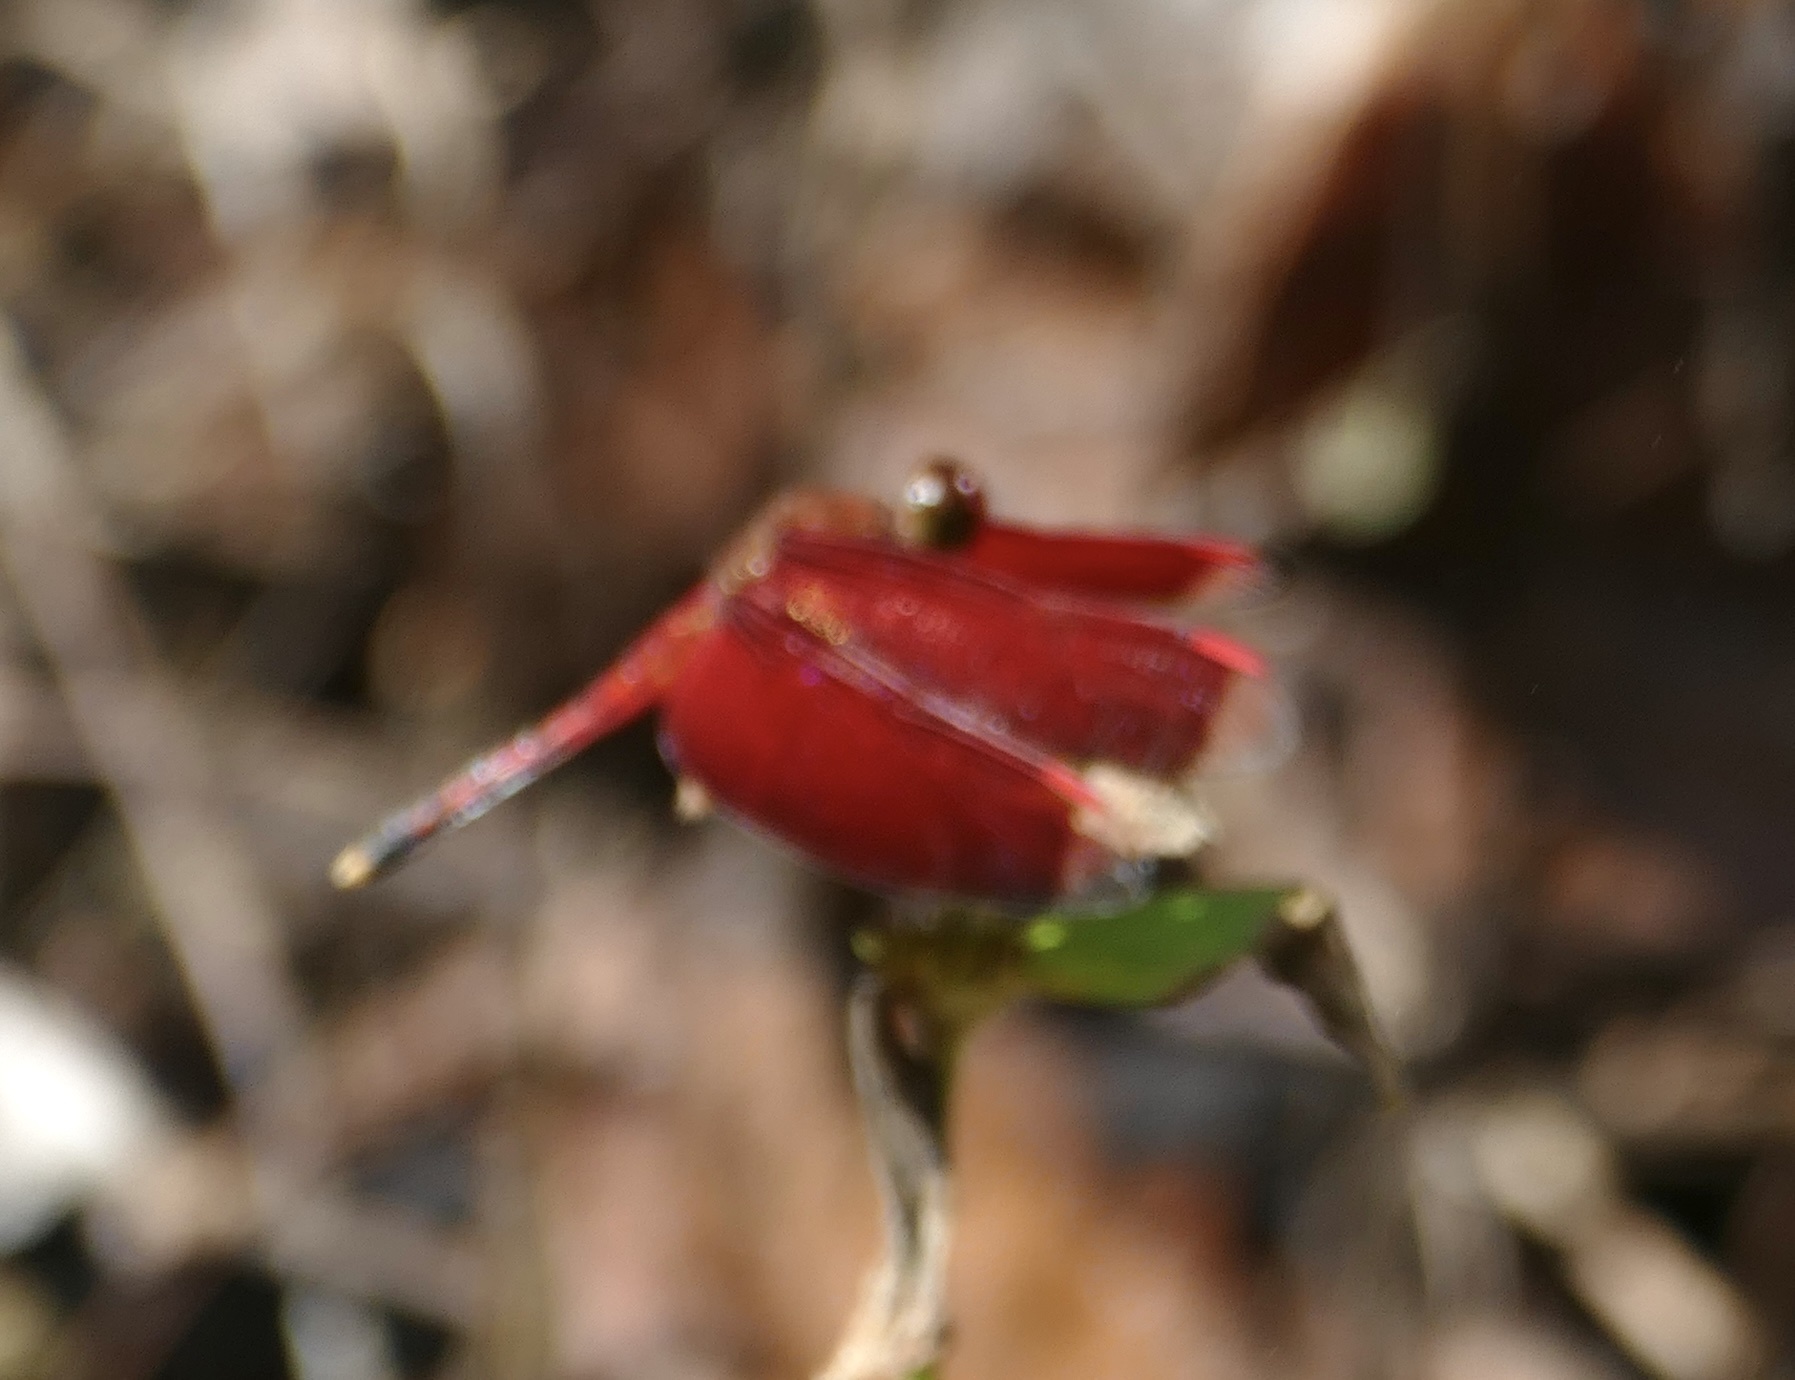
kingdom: Animalia
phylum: Arthropoda
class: Insecta
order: Odonata
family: Libellulidae
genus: Neurothemis
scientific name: Neurothemis manadensis
